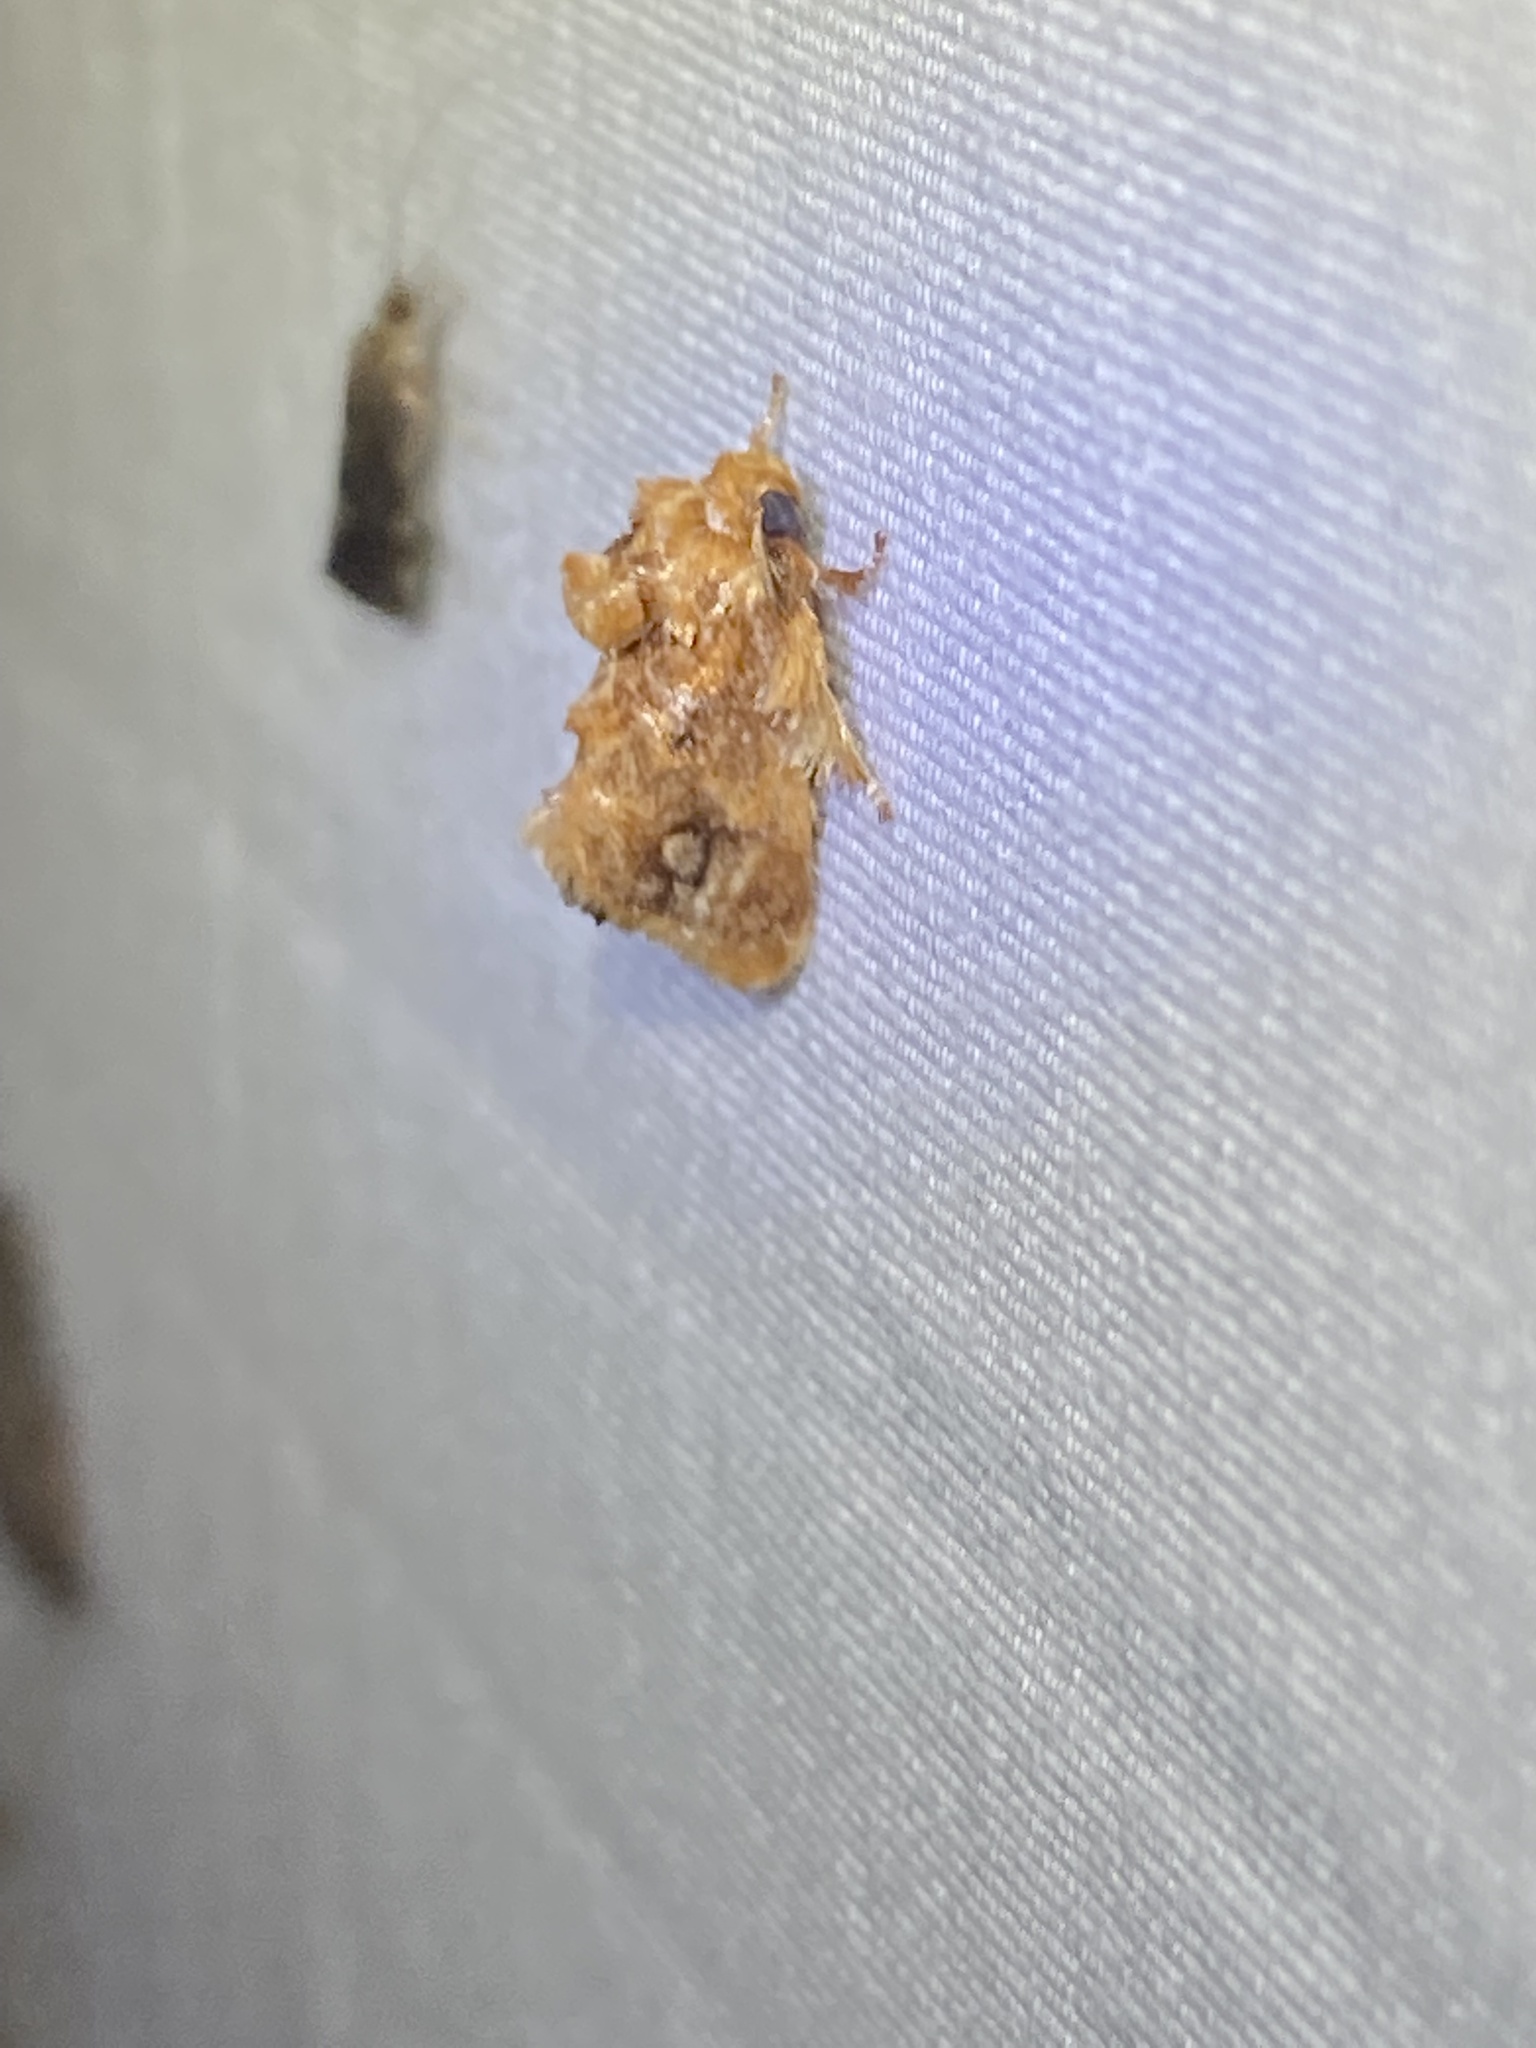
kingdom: Animalia
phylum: Arthropoda
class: Insecta
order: Lepidoptera
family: Limacodidae
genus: Isochaetes
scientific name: Isochaetes beutenmuelleri
